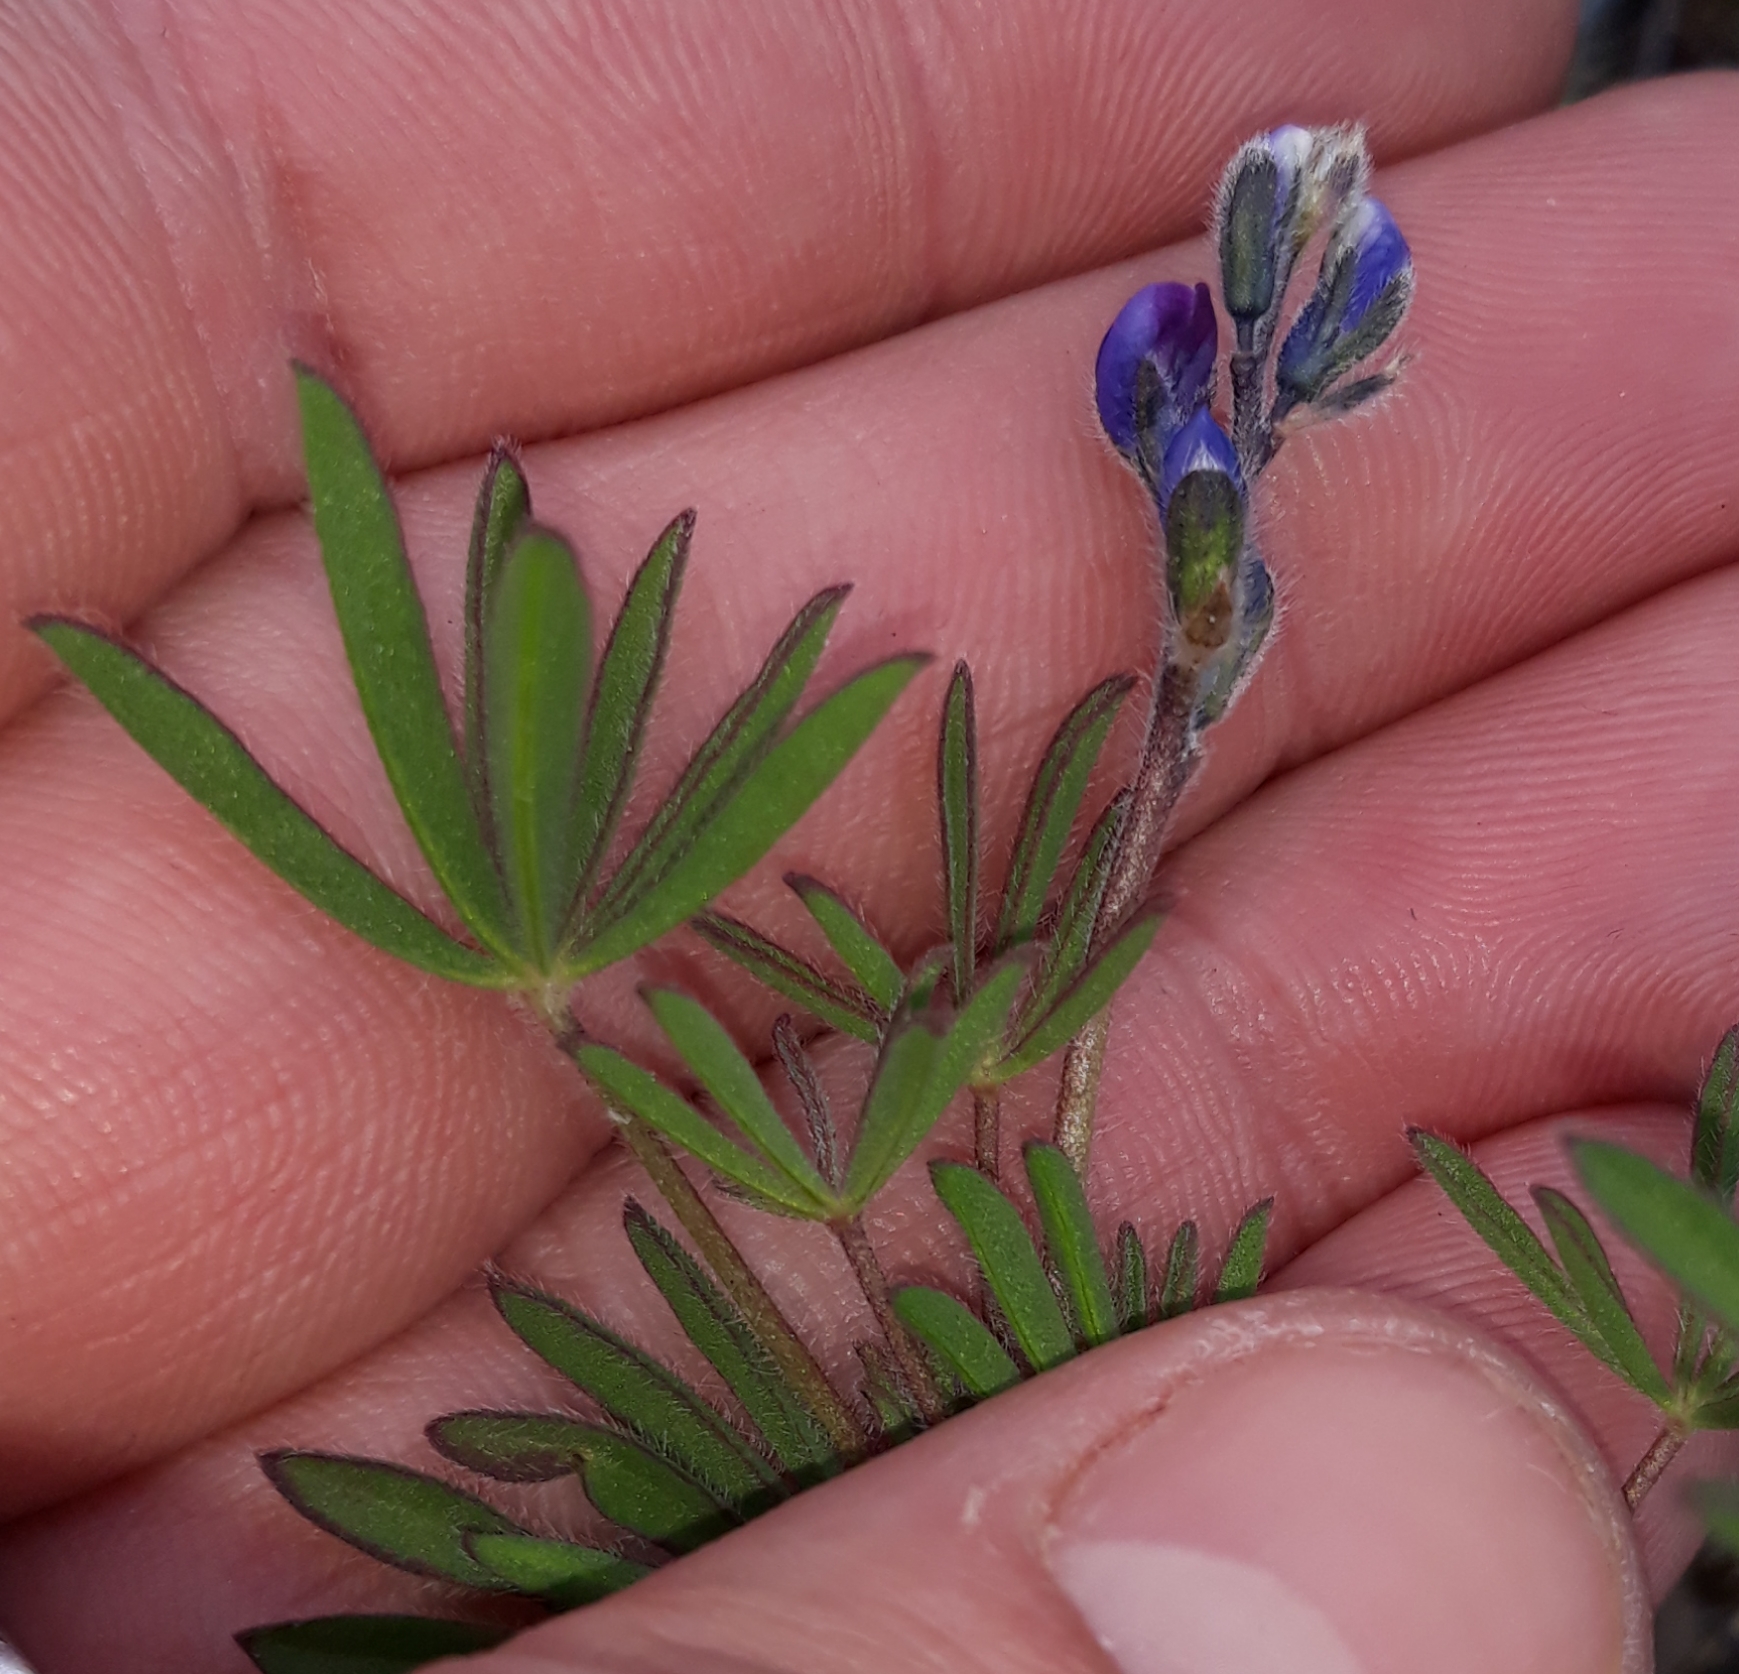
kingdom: Plantae
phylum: Tracheophyta
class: Magnoliopsida
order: Fabales
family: Fabaceae
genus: Lupinus
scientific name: Lupinus bicolor
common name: Miniature lupine
